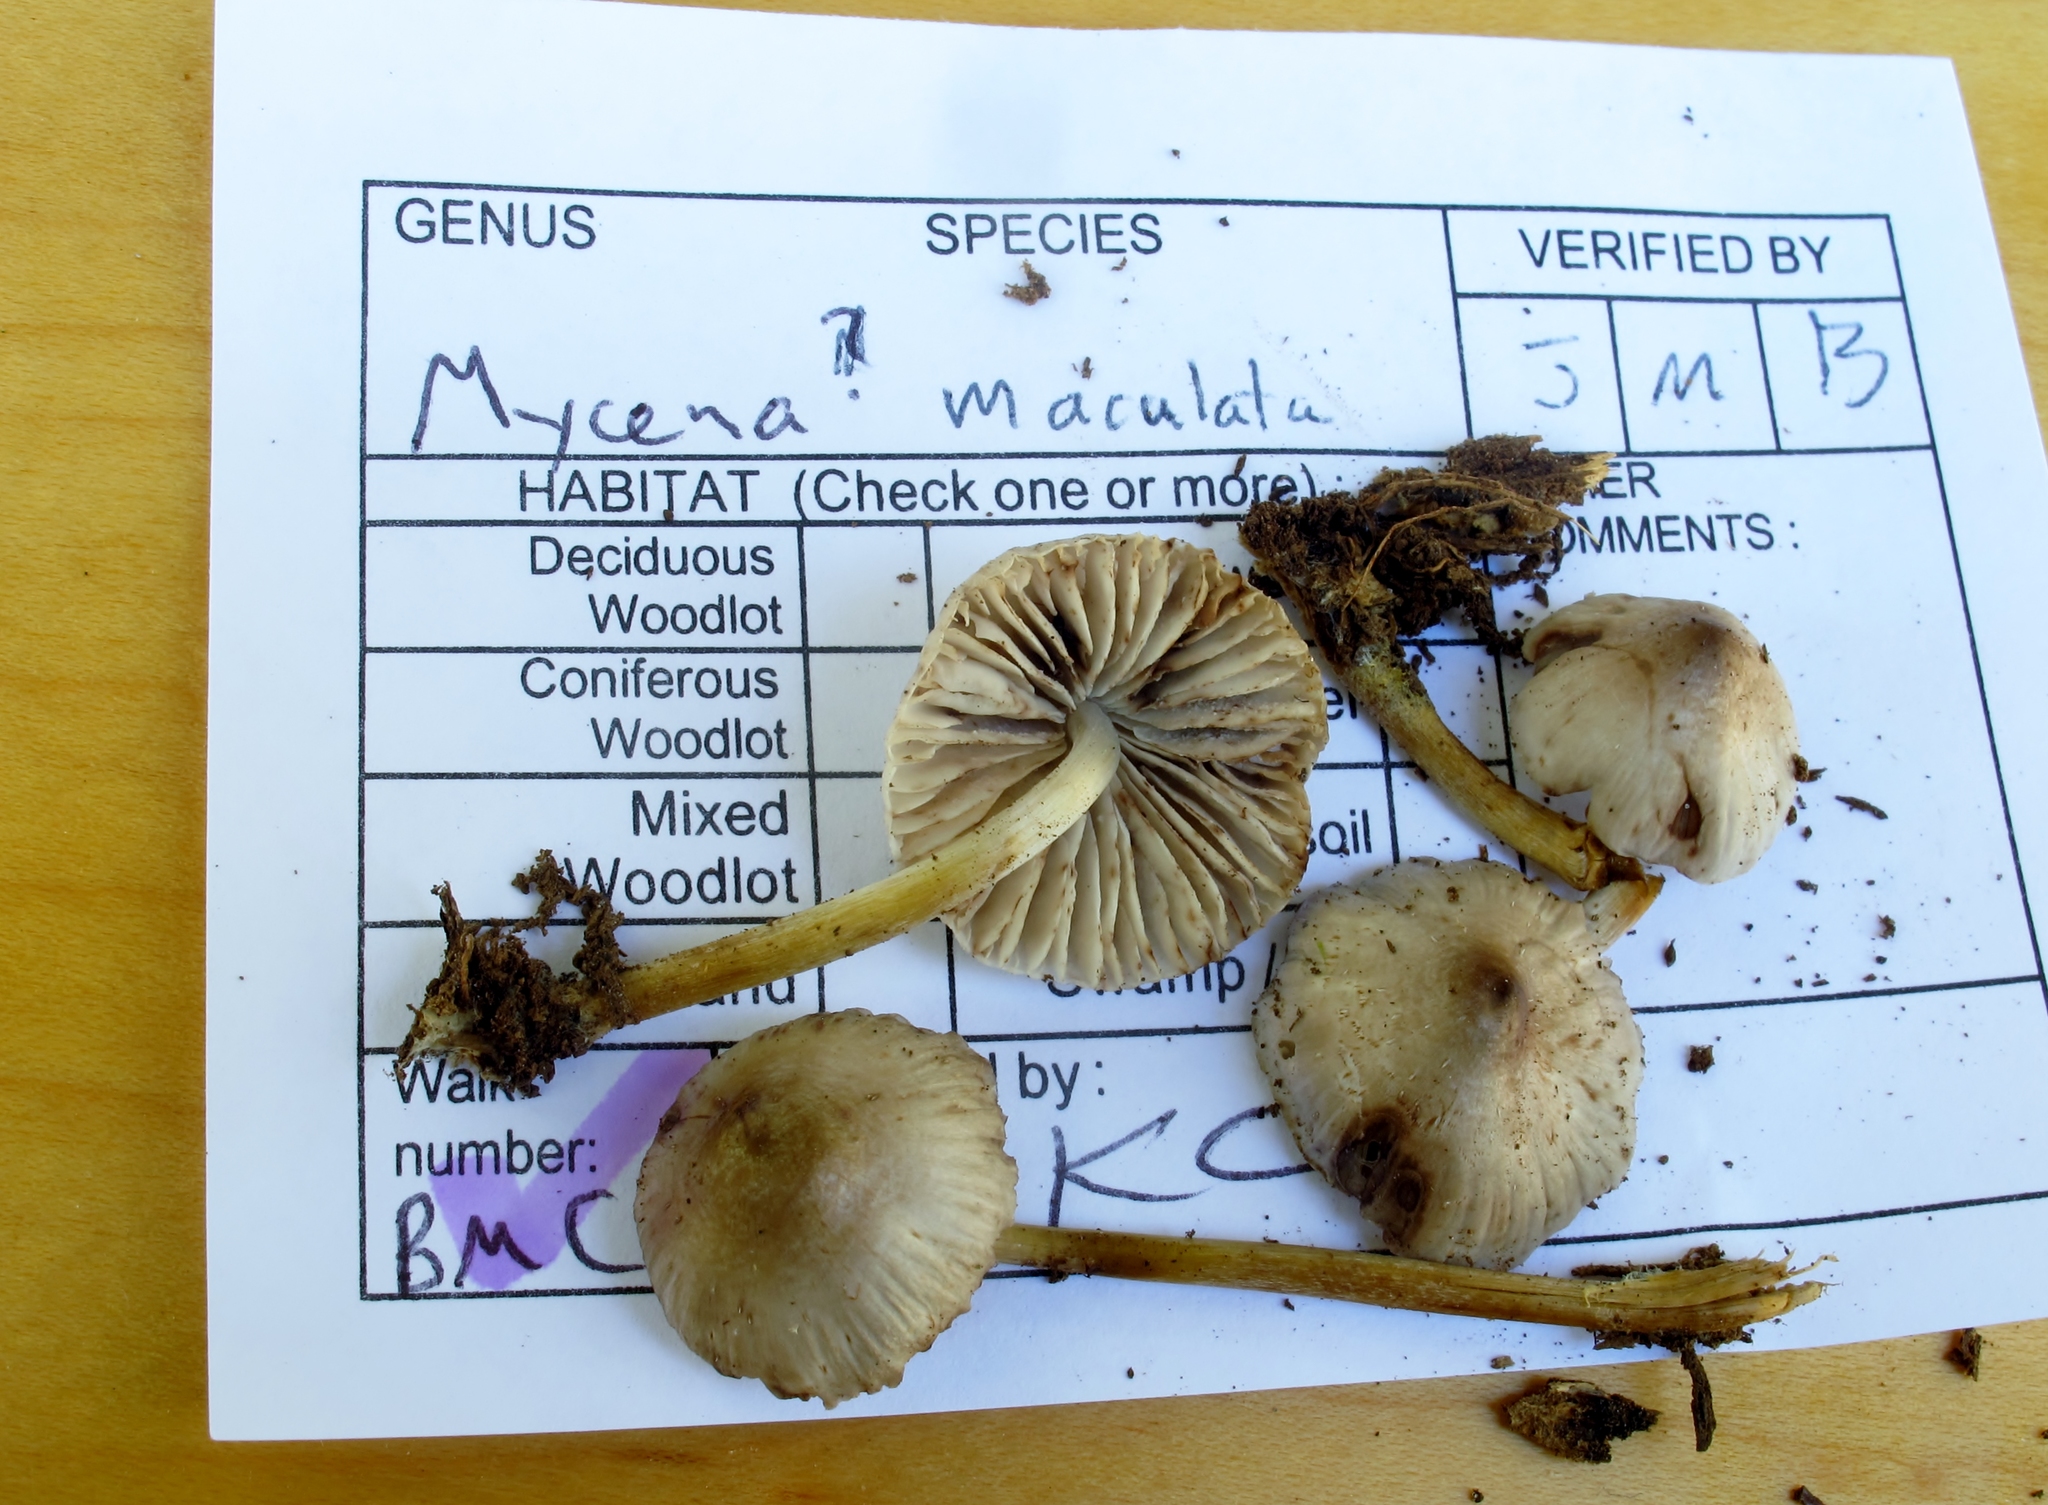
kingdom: Fungi
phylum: Basidiomycota
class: Agaricomycetes
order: Agaricales
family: Mycenaceae
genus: Mycena
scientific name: Mycena maculata
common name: Stained bonnet
